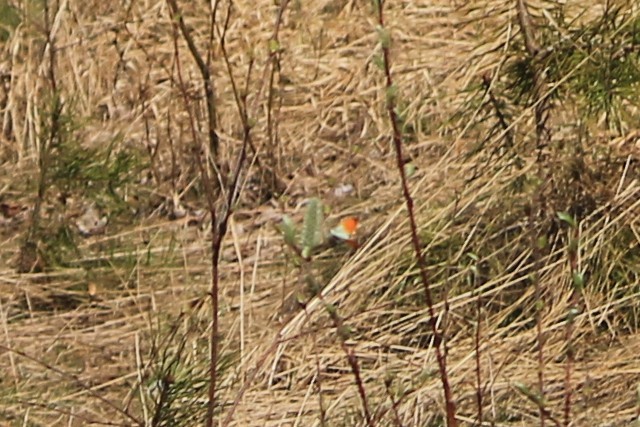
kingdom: Animalia
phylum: Arthropoda
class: Insecta
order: Lepidoptera
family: Pieridae
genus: Anthocharis
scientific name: Anthocharis cardamines
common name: Orange-tip
